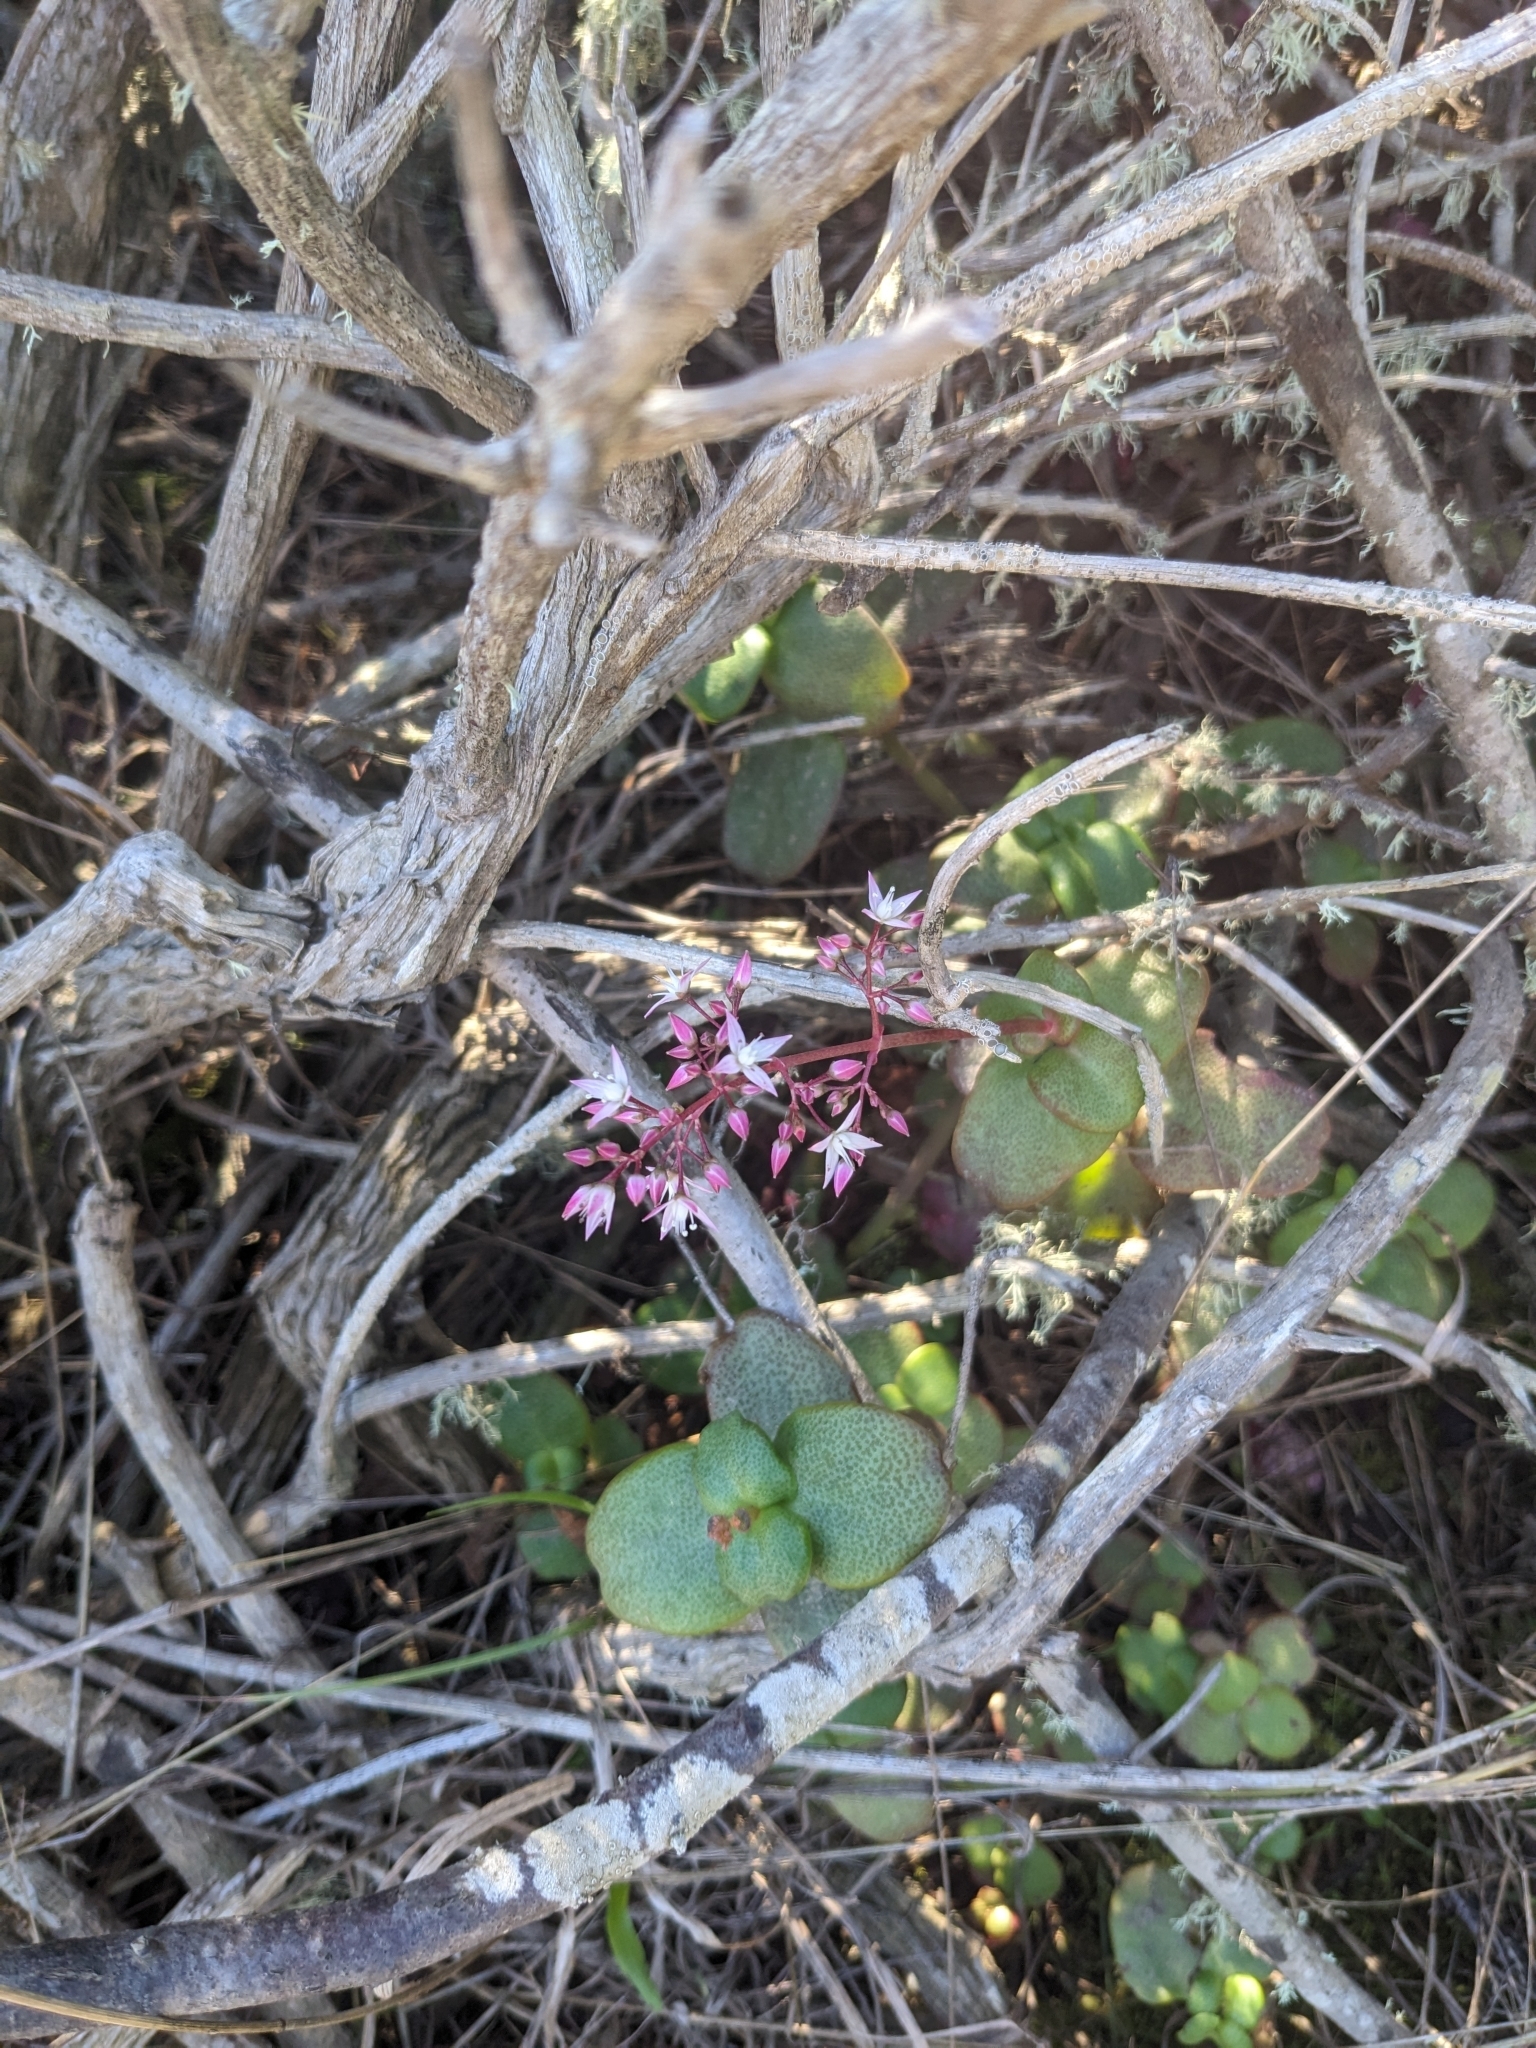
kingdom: Plantae
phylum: Tracheophyta
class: Magnoliopsida
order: Saxifragales
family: Crassulaceae
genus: Crassula
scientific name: Crassula multicava
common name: Cape province pygmyweed
